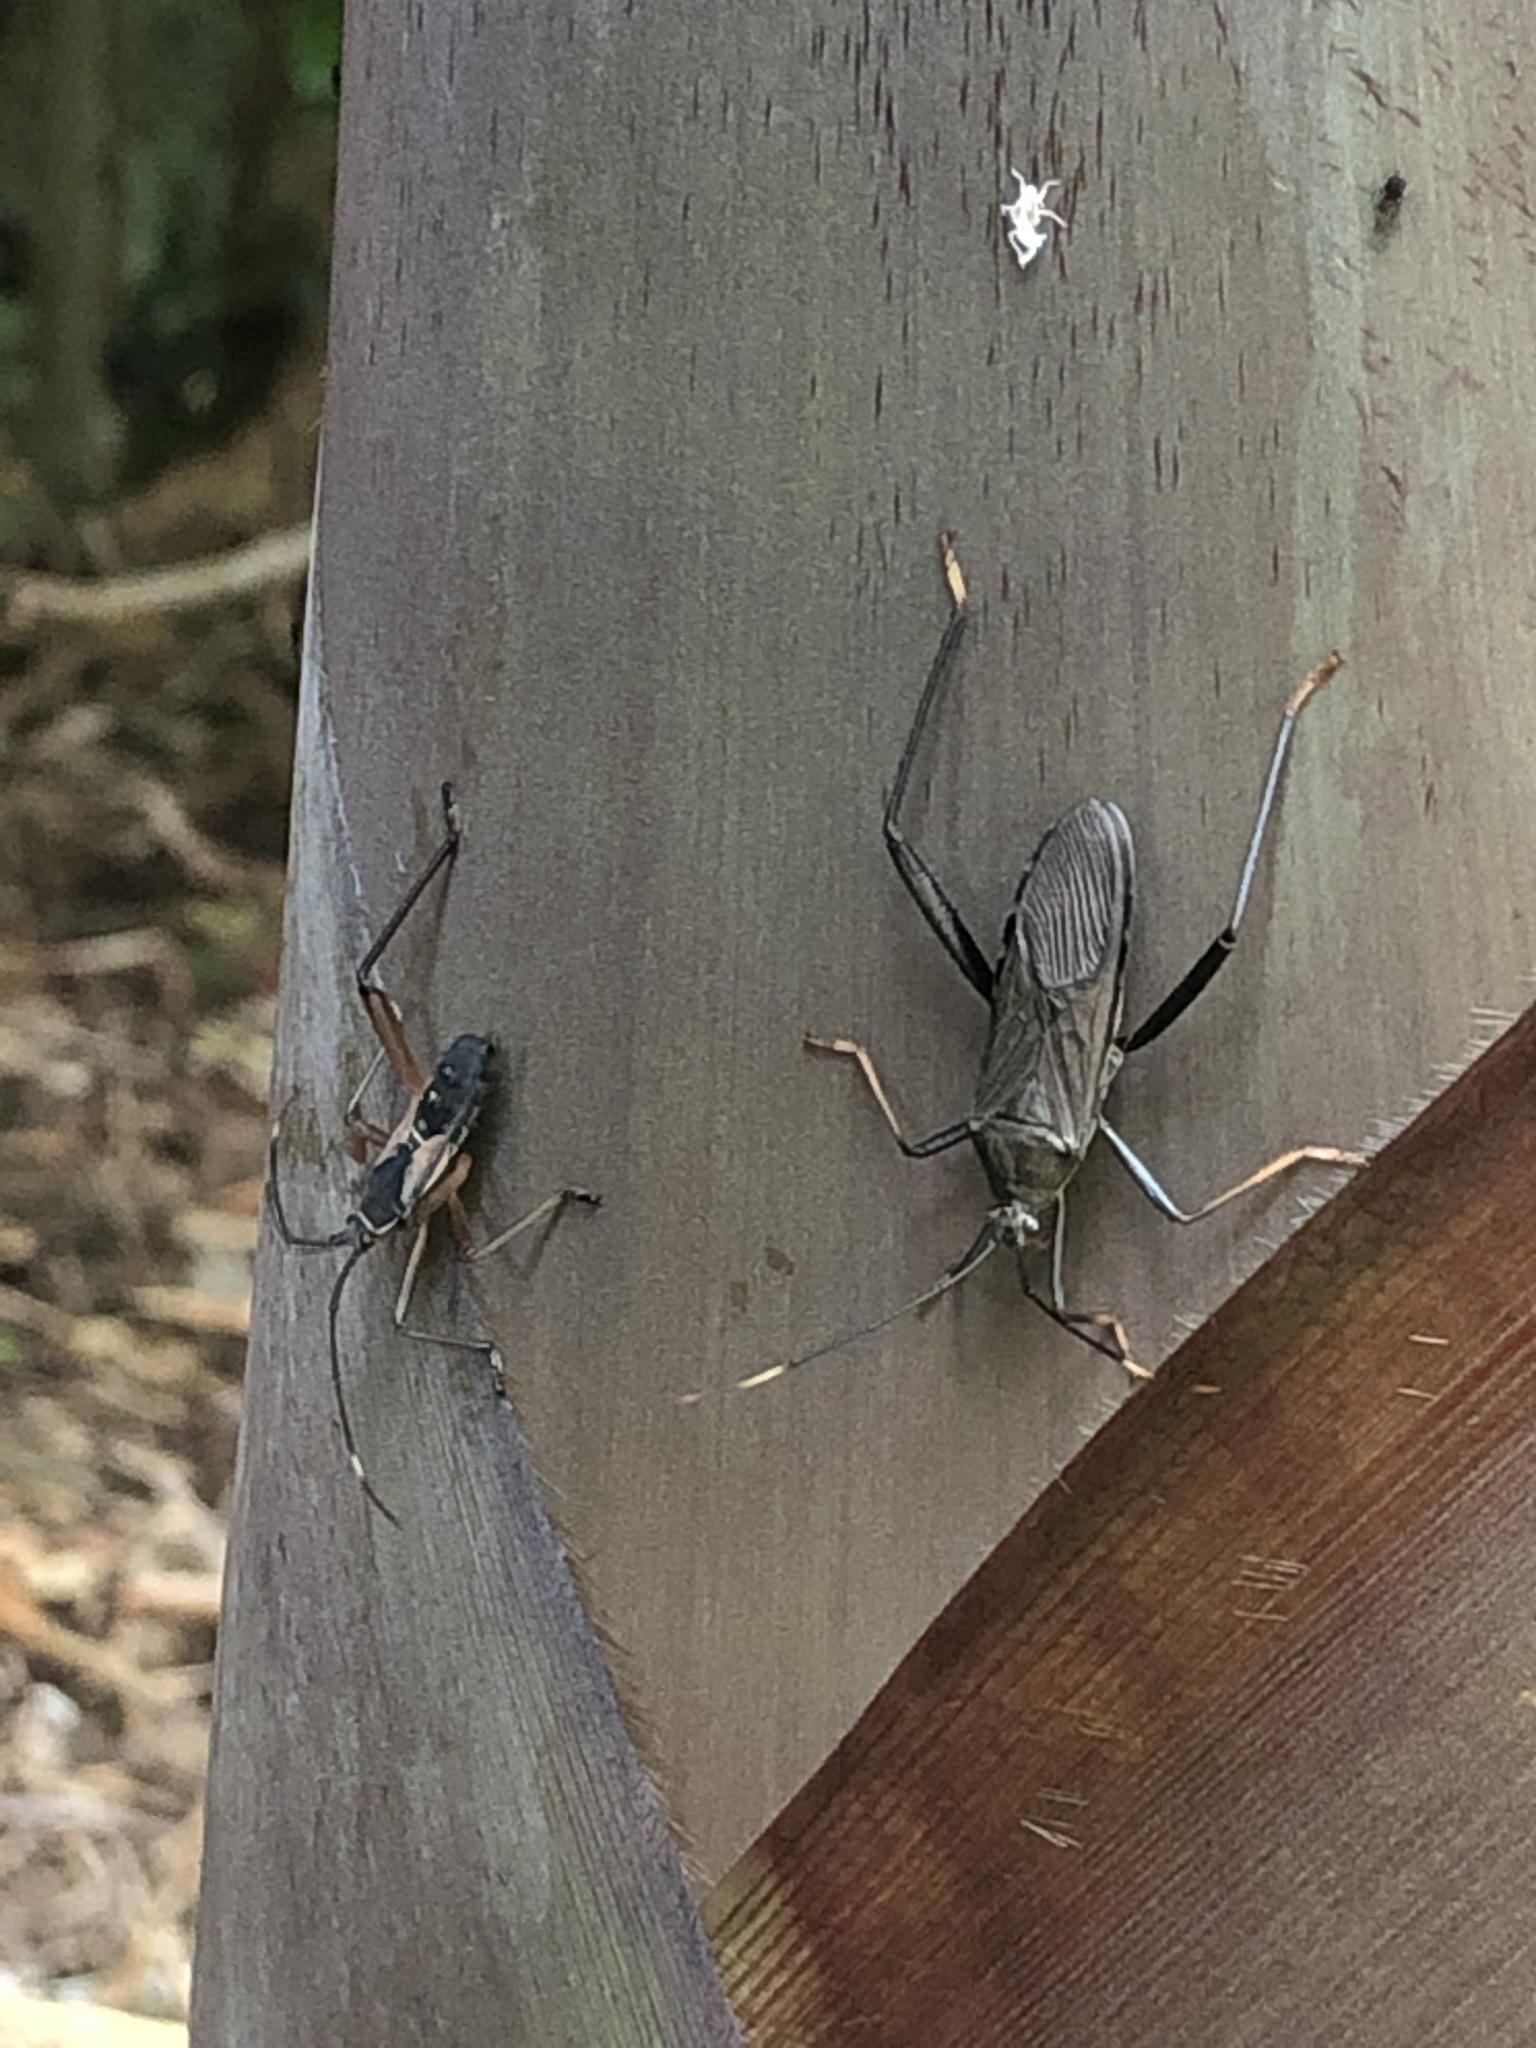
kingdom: Animalia
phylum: Arthropoda
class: Insecta
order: Hemiptera
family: Coreidae
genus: Notobitus
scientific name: Notobitus meleagris
